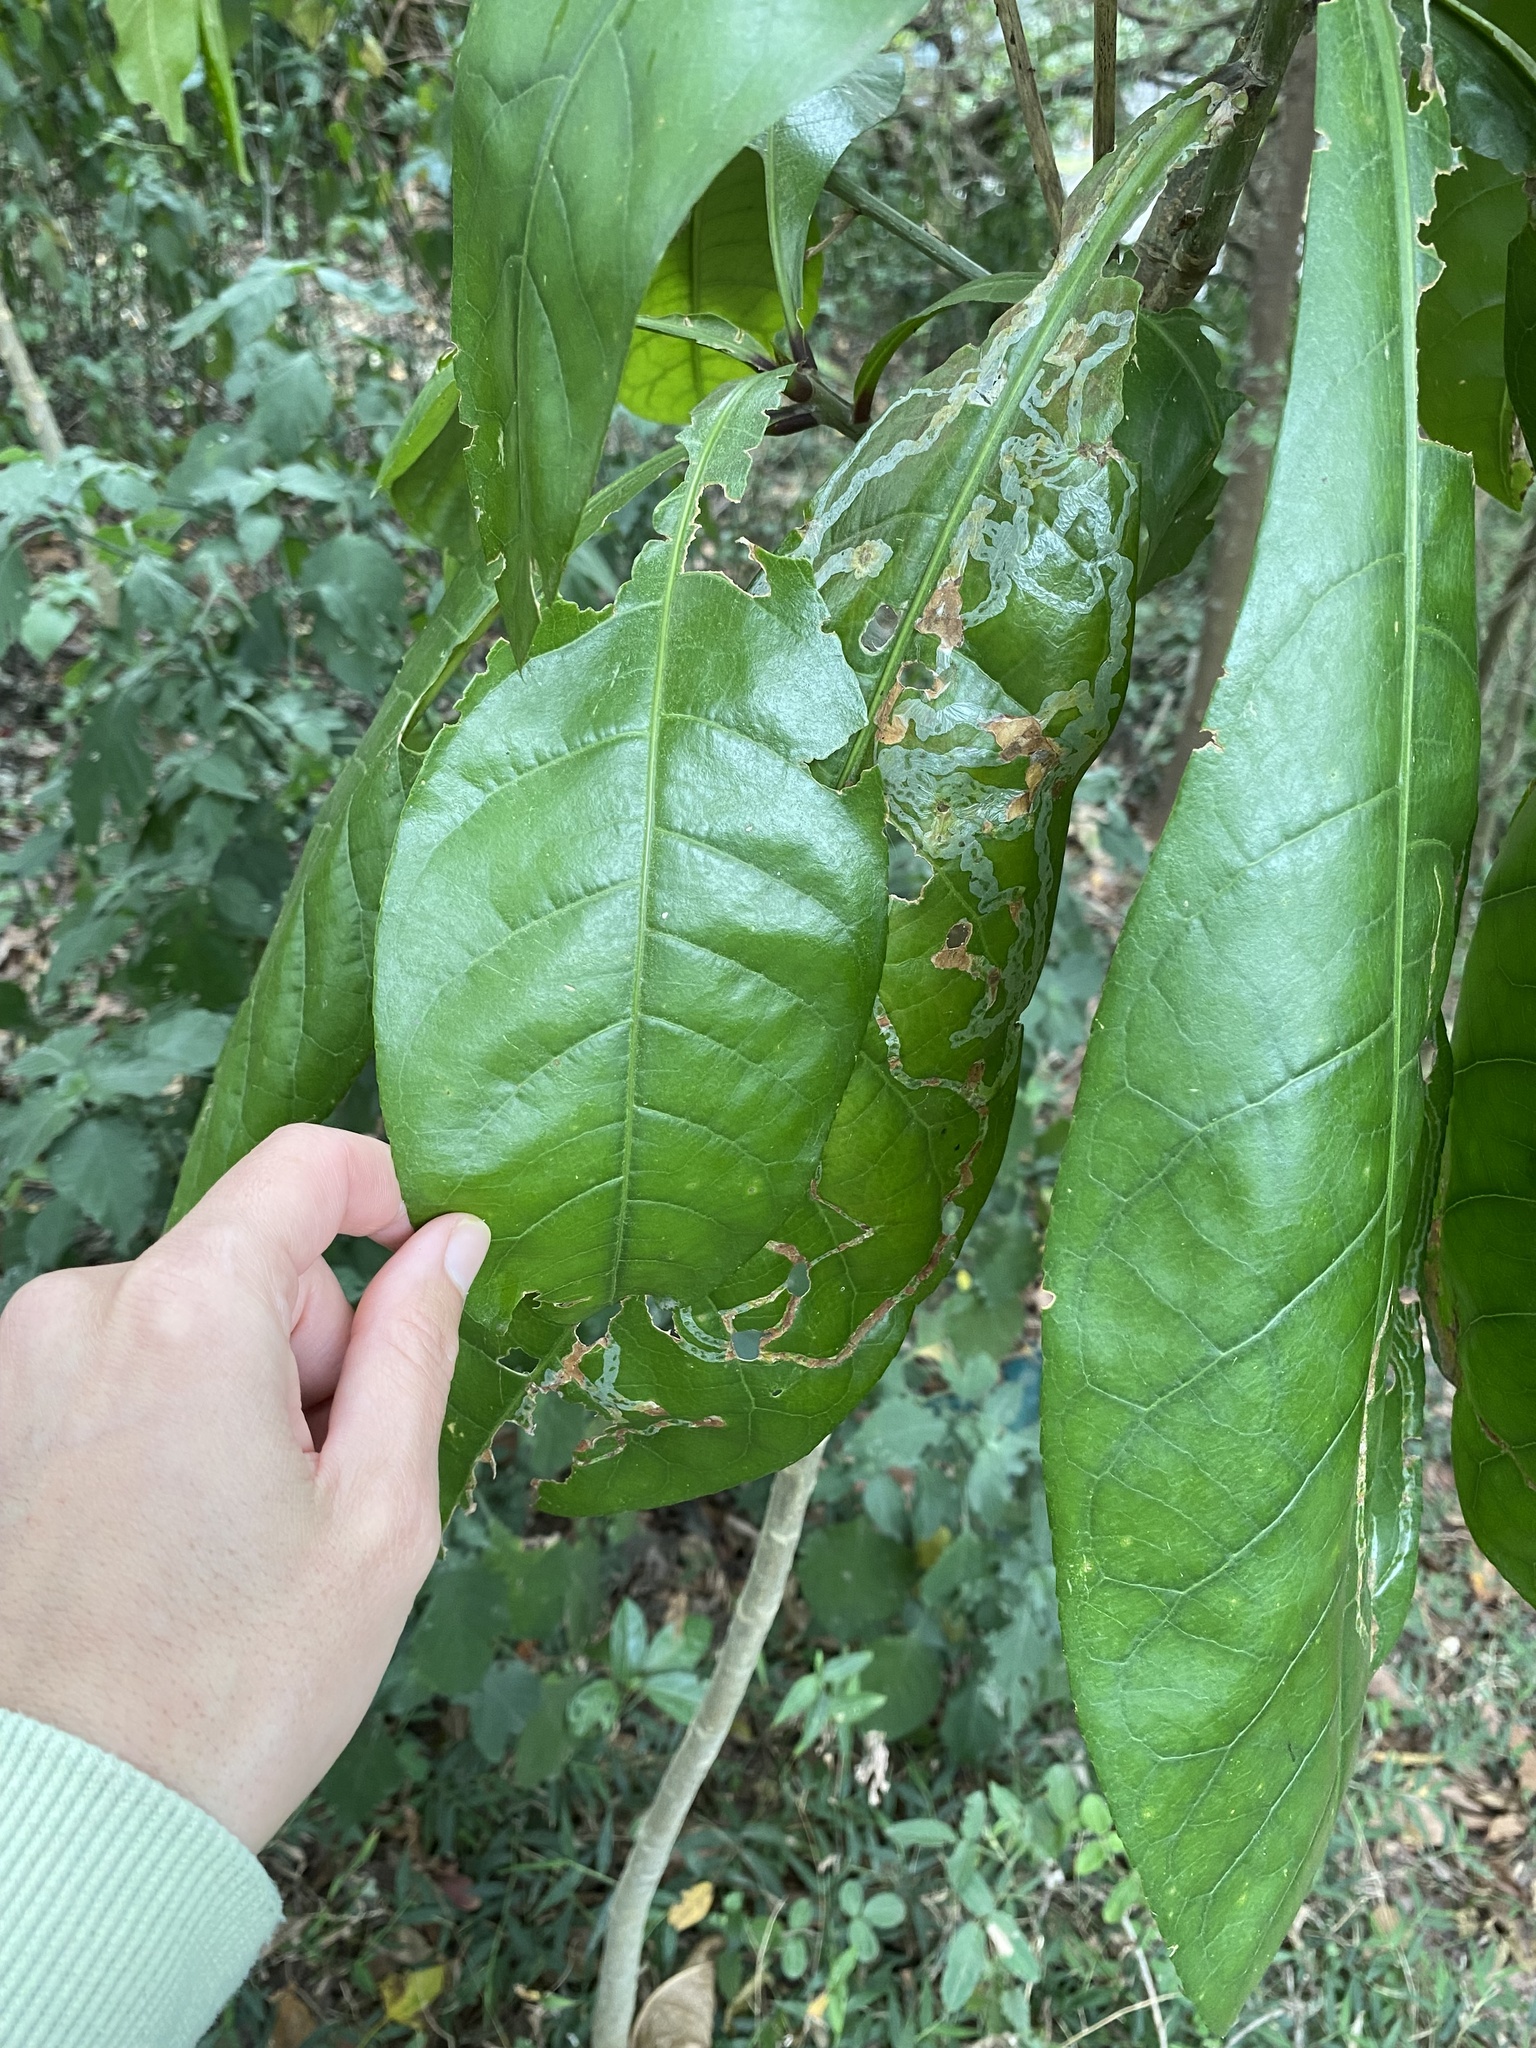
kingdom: Plantae
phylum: Tracheophyta
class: Magnoliopsida
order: Ericales
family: Lecythidaceae
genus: Barringtonia
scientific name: Barringtonia racemosa
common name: Brackwater mangrove
